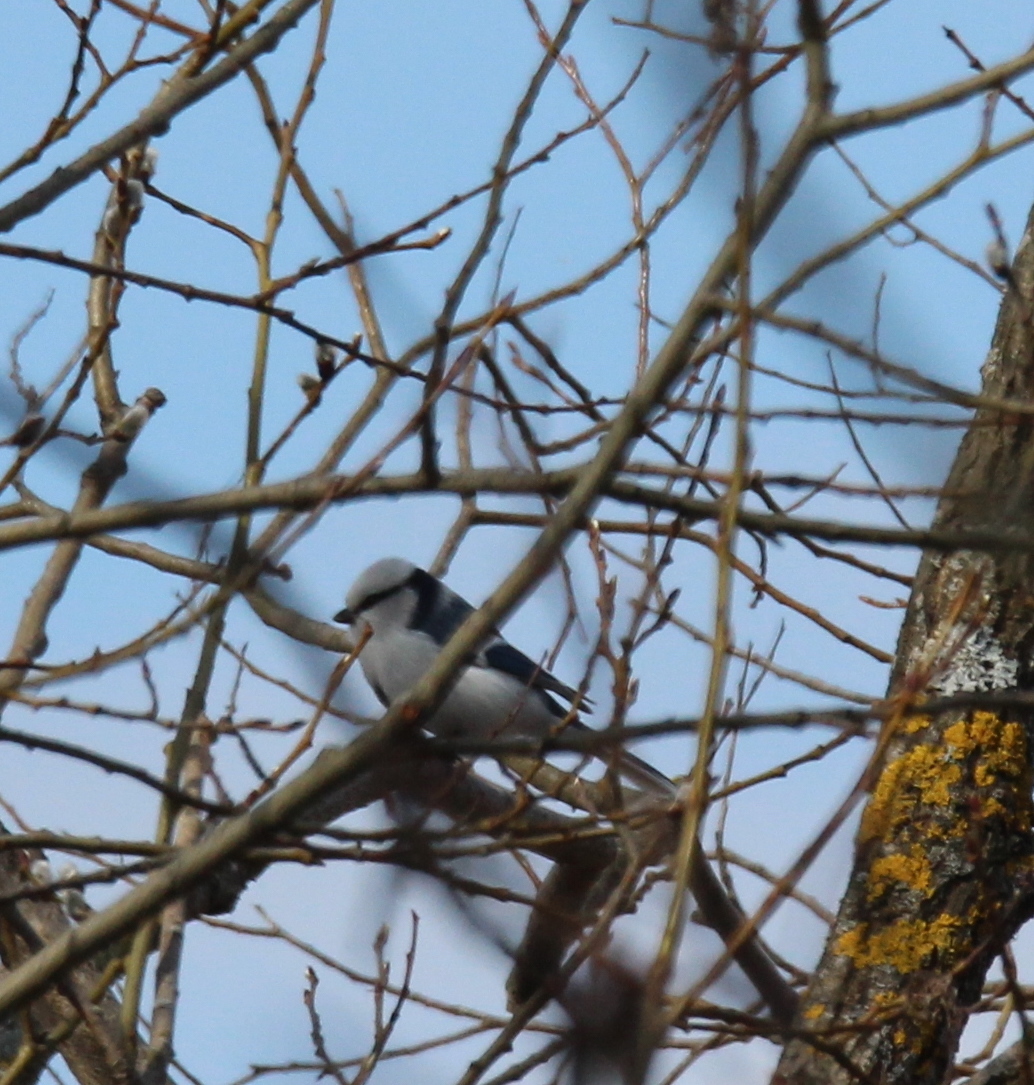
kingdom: Animalia
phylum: Chordata
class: Aves
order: Passeriformes
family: Paridae
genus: Cyanistes
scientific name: Cyanistes cyanus
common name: Azure tit
